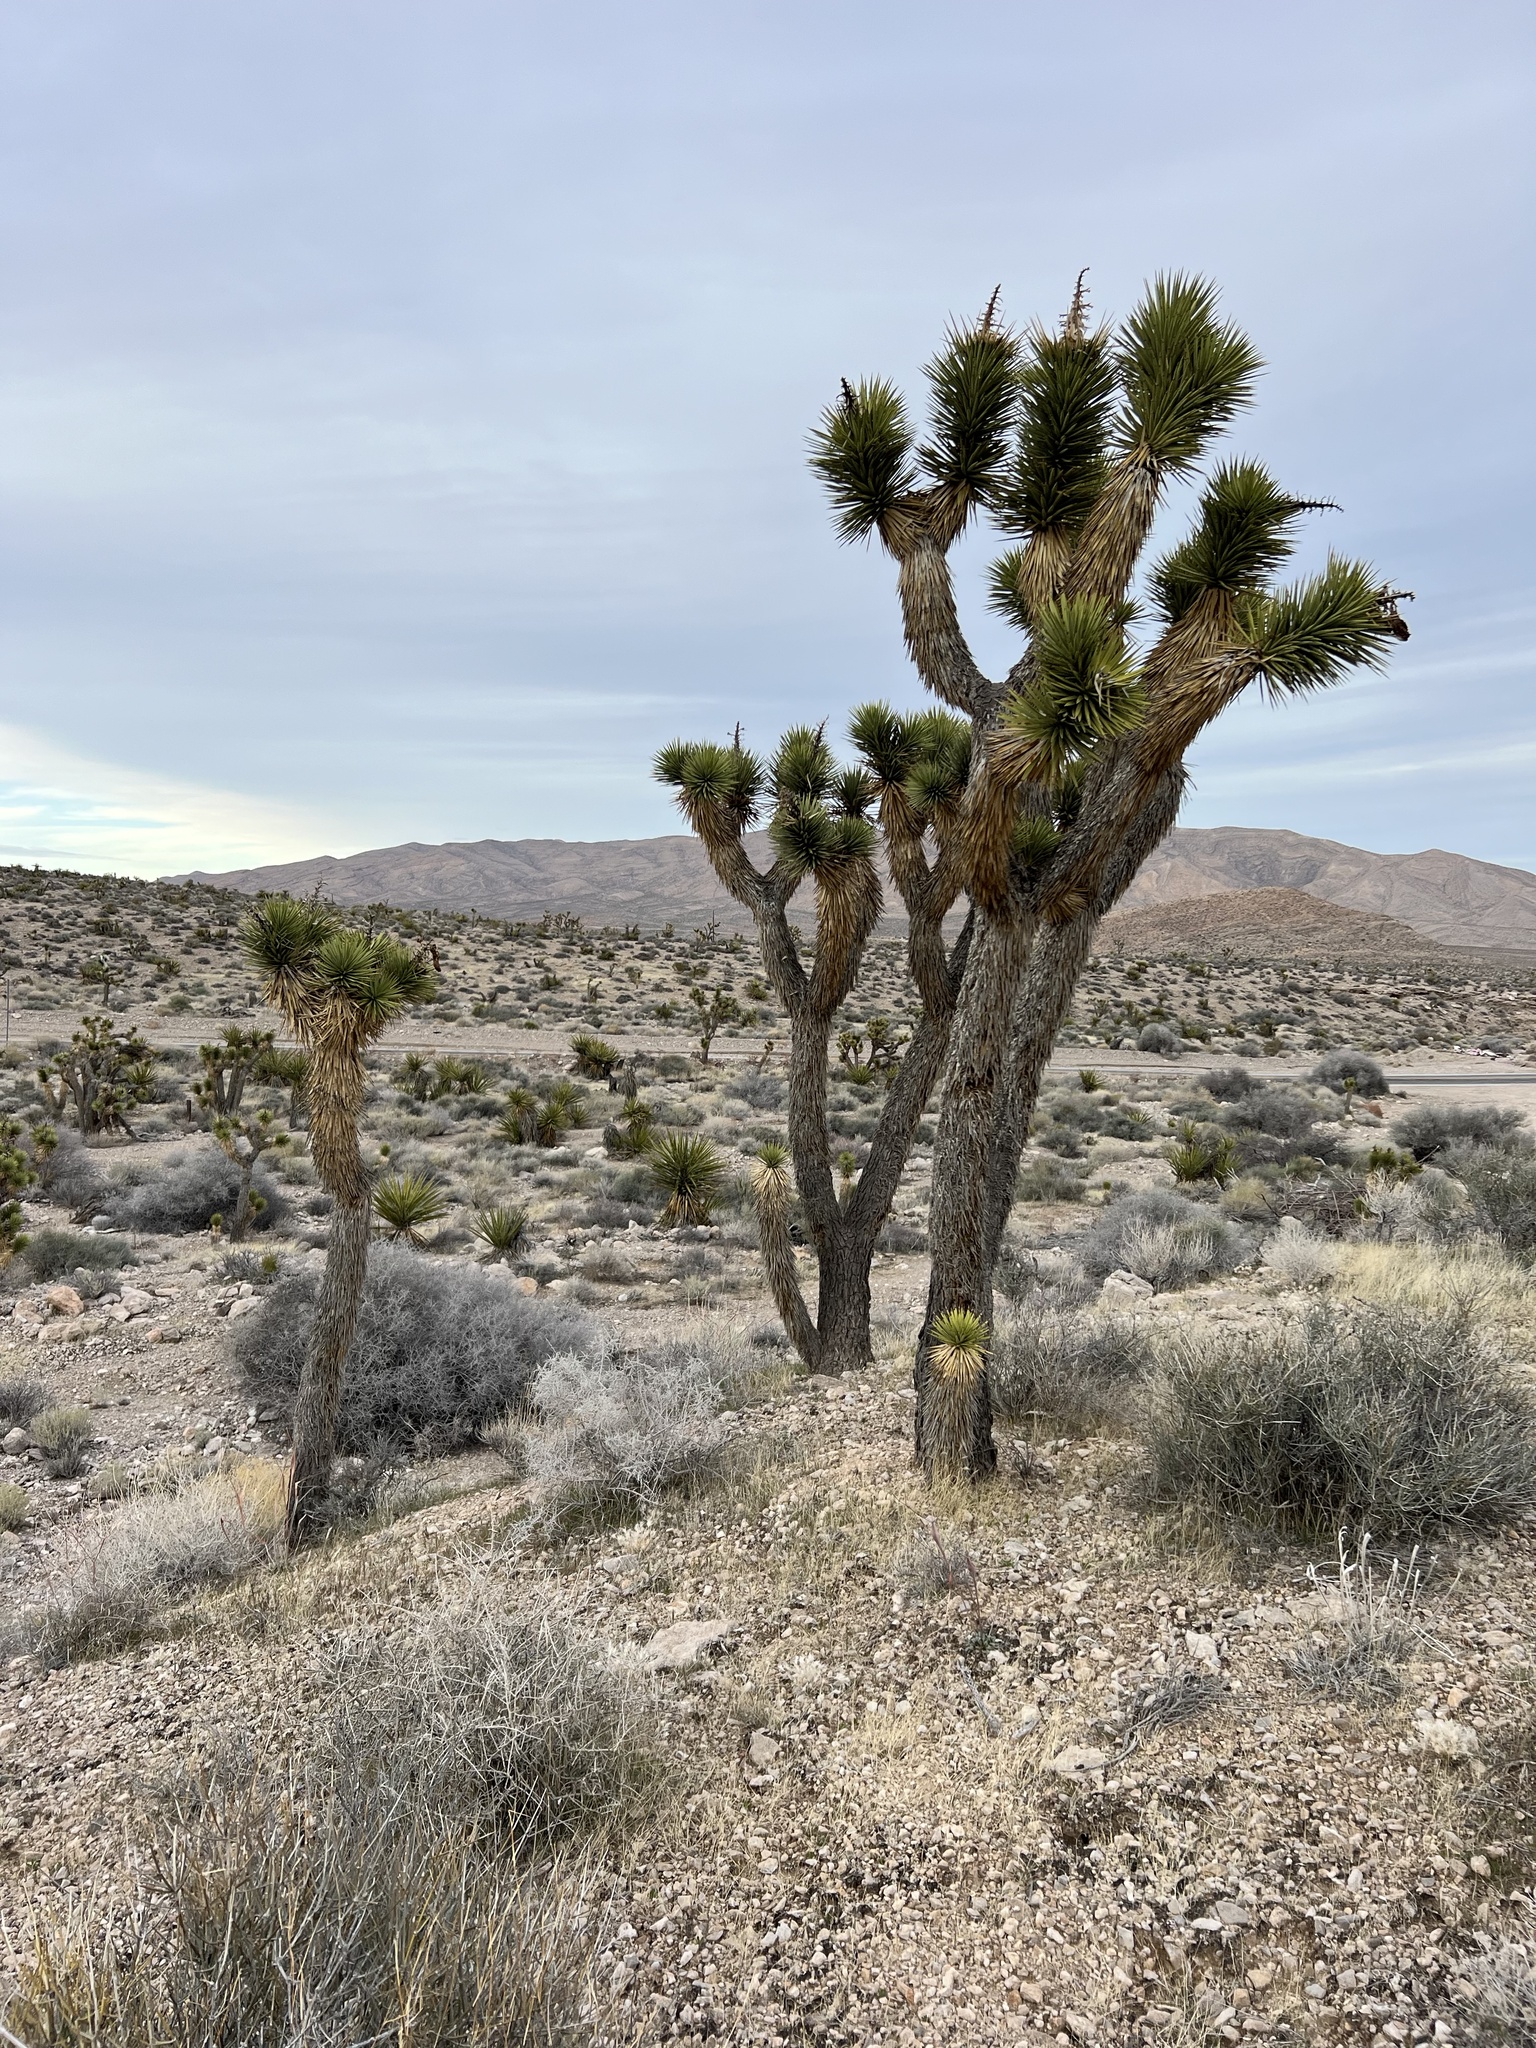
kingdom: Plantae
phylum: Tracheophyta
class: Liliopsida
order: Asparagales
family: Asparagaceae
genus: Yucca
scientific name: Yucca brevifolia
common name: Joshua tree
